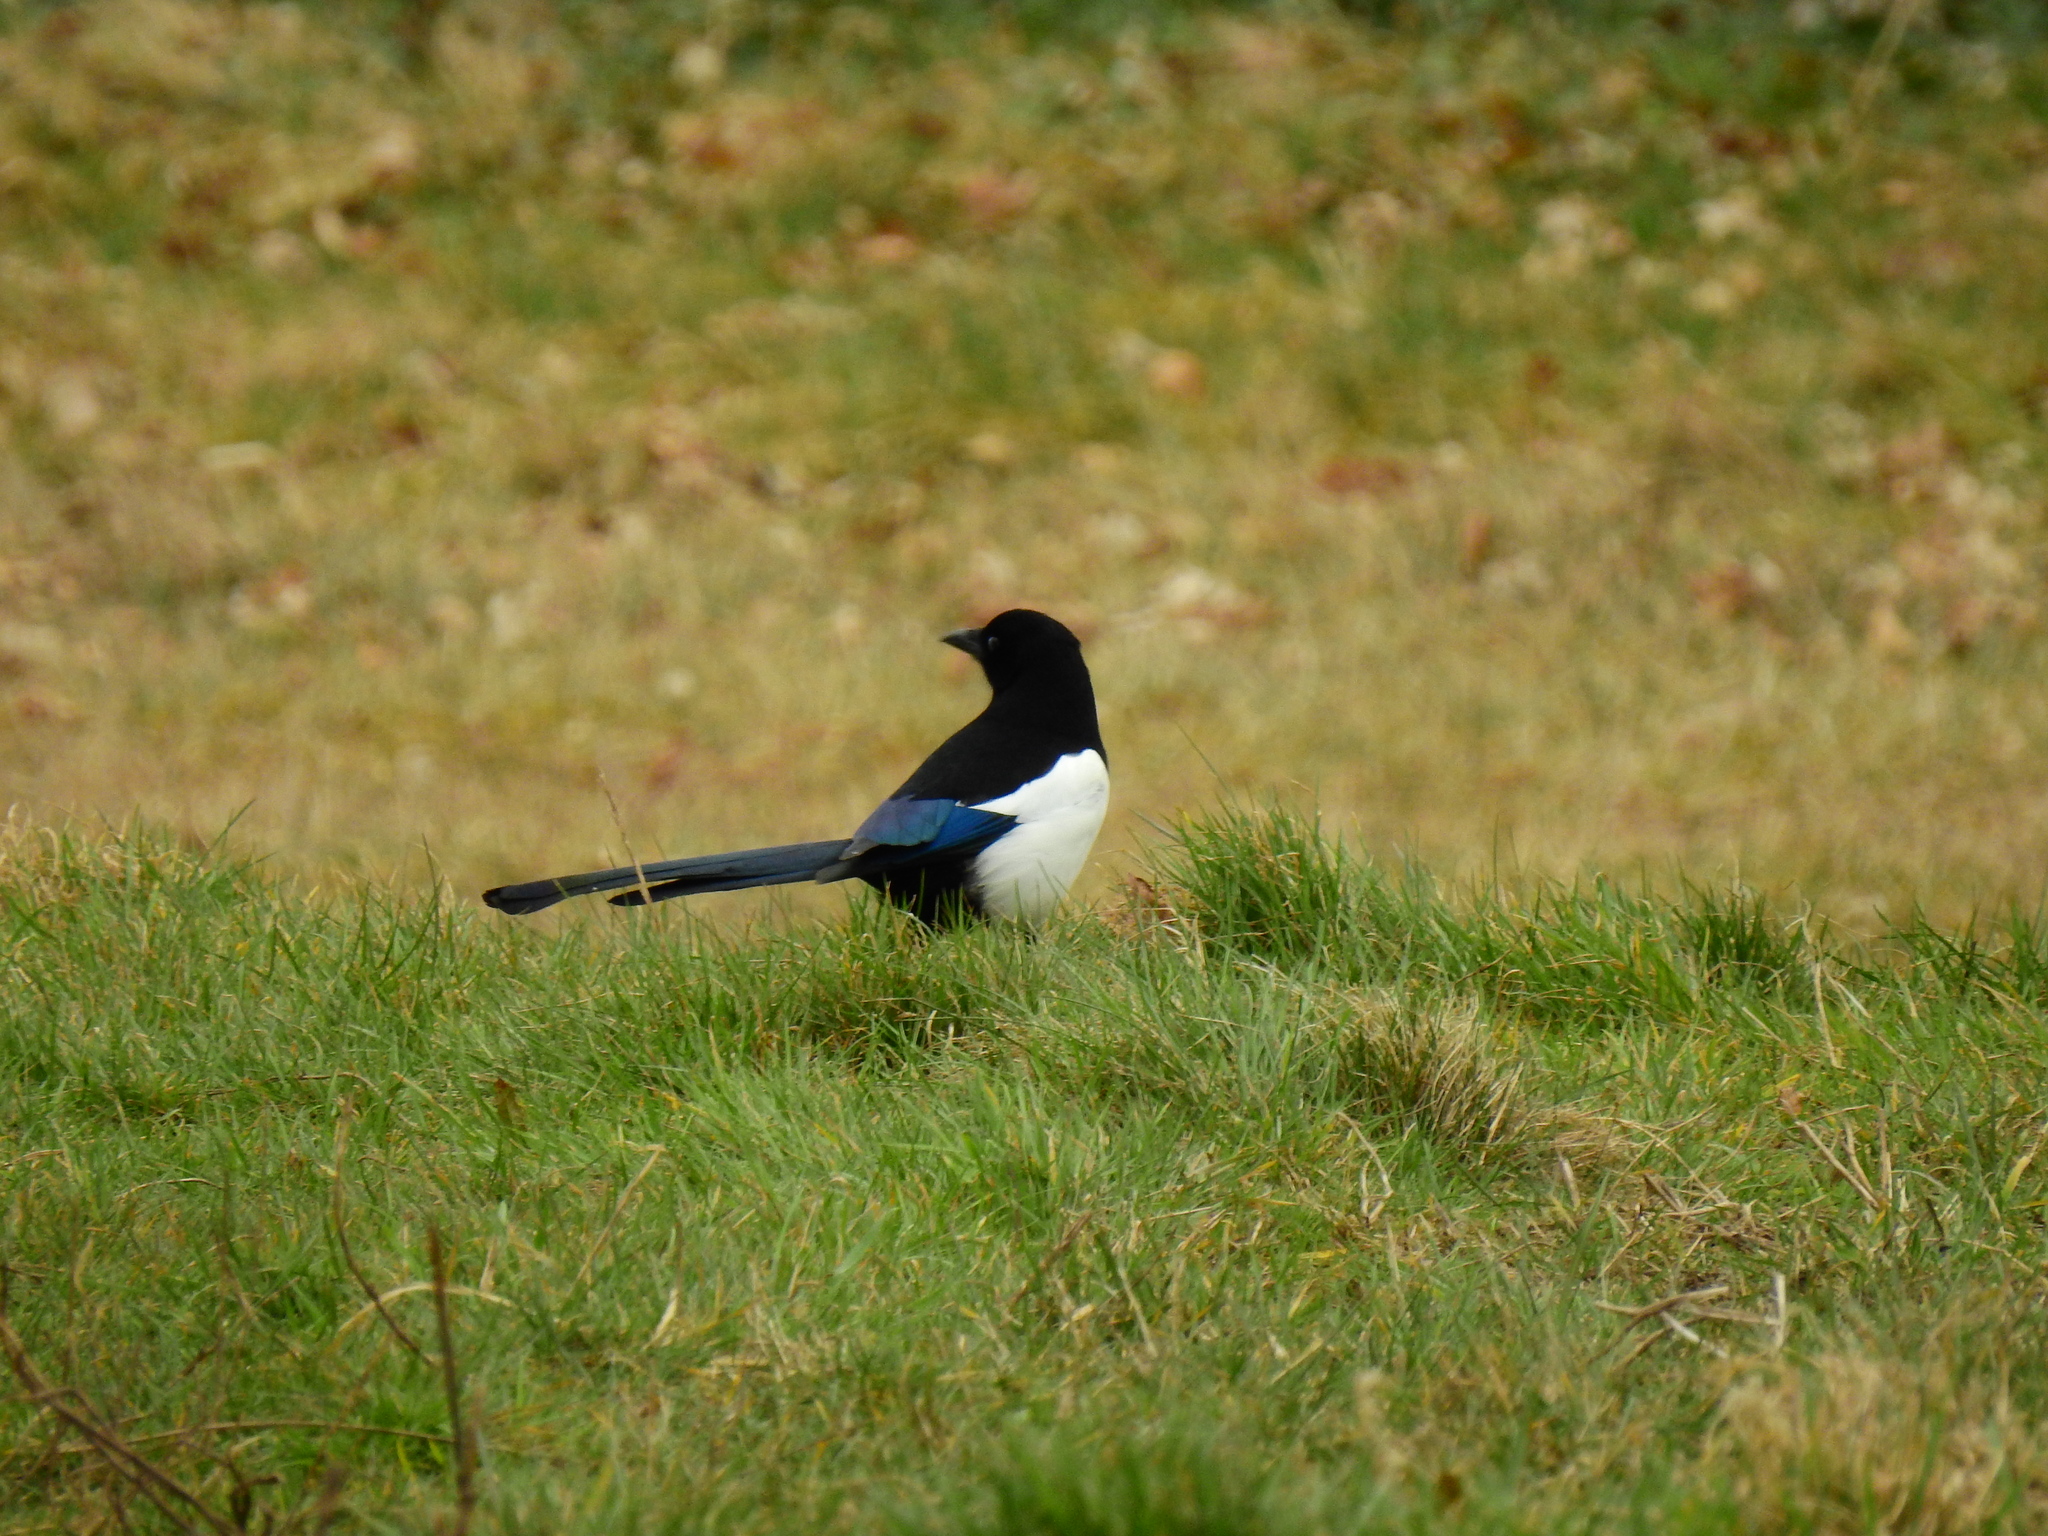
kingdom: Animalia
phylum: Chordata
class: Aves
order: Passeriformes
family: Corvidae
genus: Pica
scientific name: Pica pica
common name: Eurasian magpie
